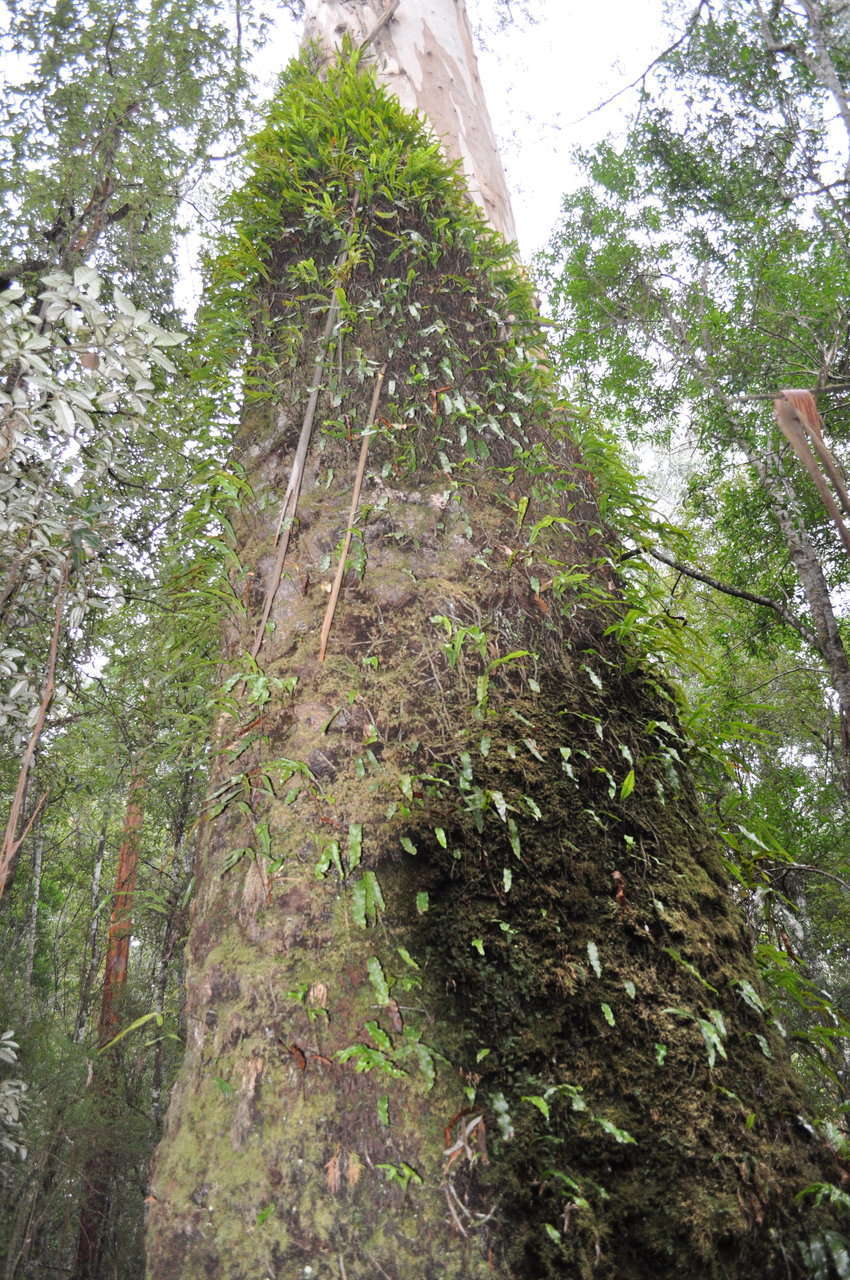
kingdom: Plantae
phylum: Tracheophyta
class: Polypodiopsida
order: Polypodiales
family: Polypodiaceae
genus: Lecanopteris
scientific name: Lecanopteris pustulata
